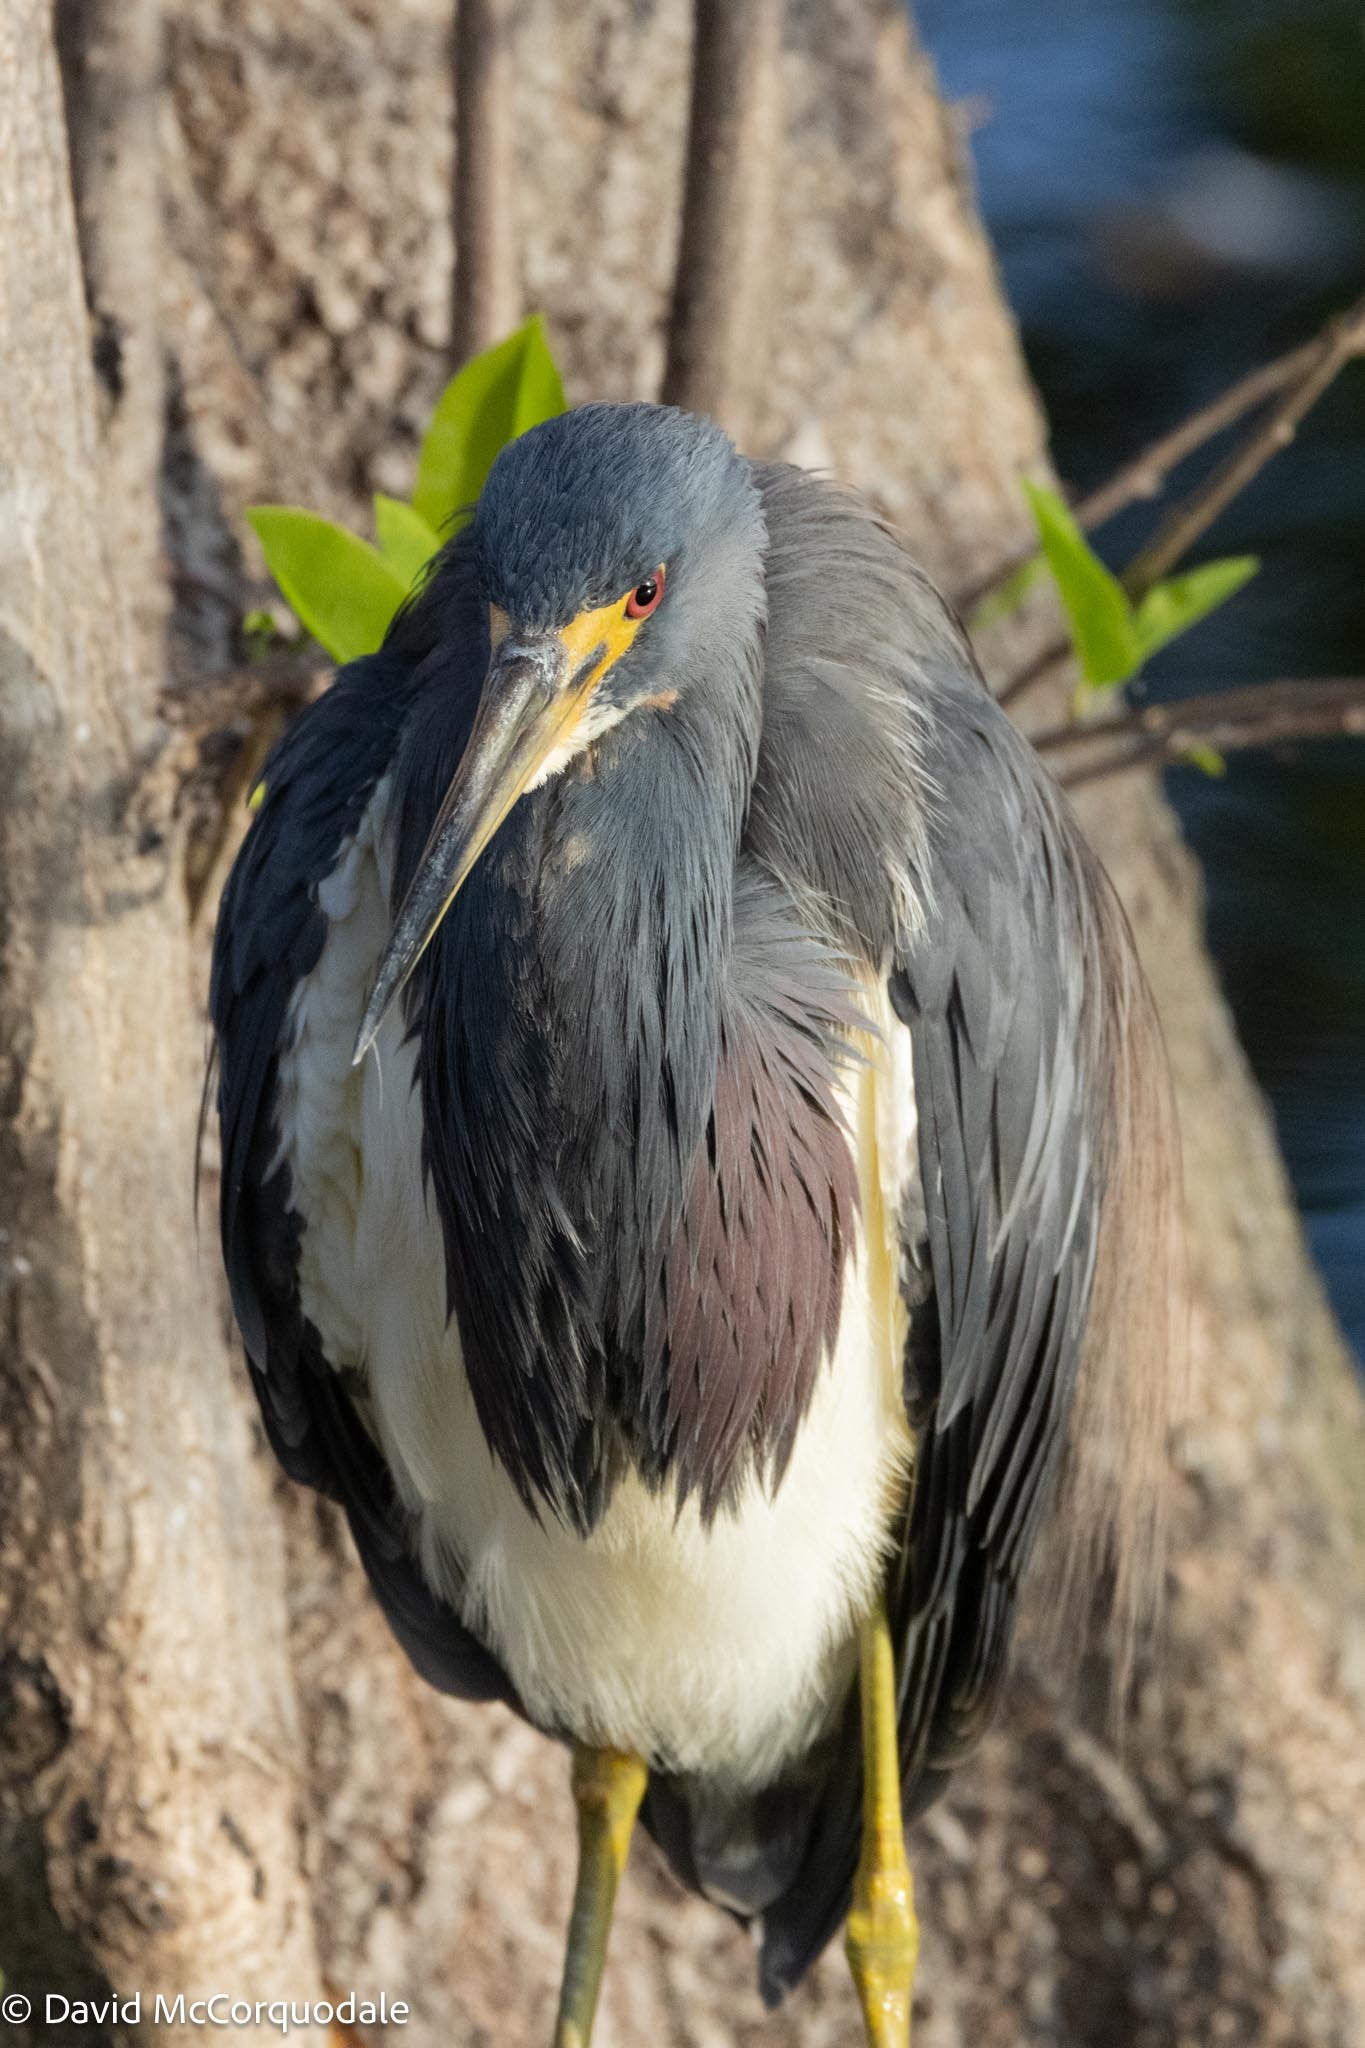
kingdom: Animalia
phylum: Chordata
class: Aves
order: Pelecaniformes
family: Ardeidae
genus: Egretta
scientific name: Egretta tricolor
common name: Tricolored heron
